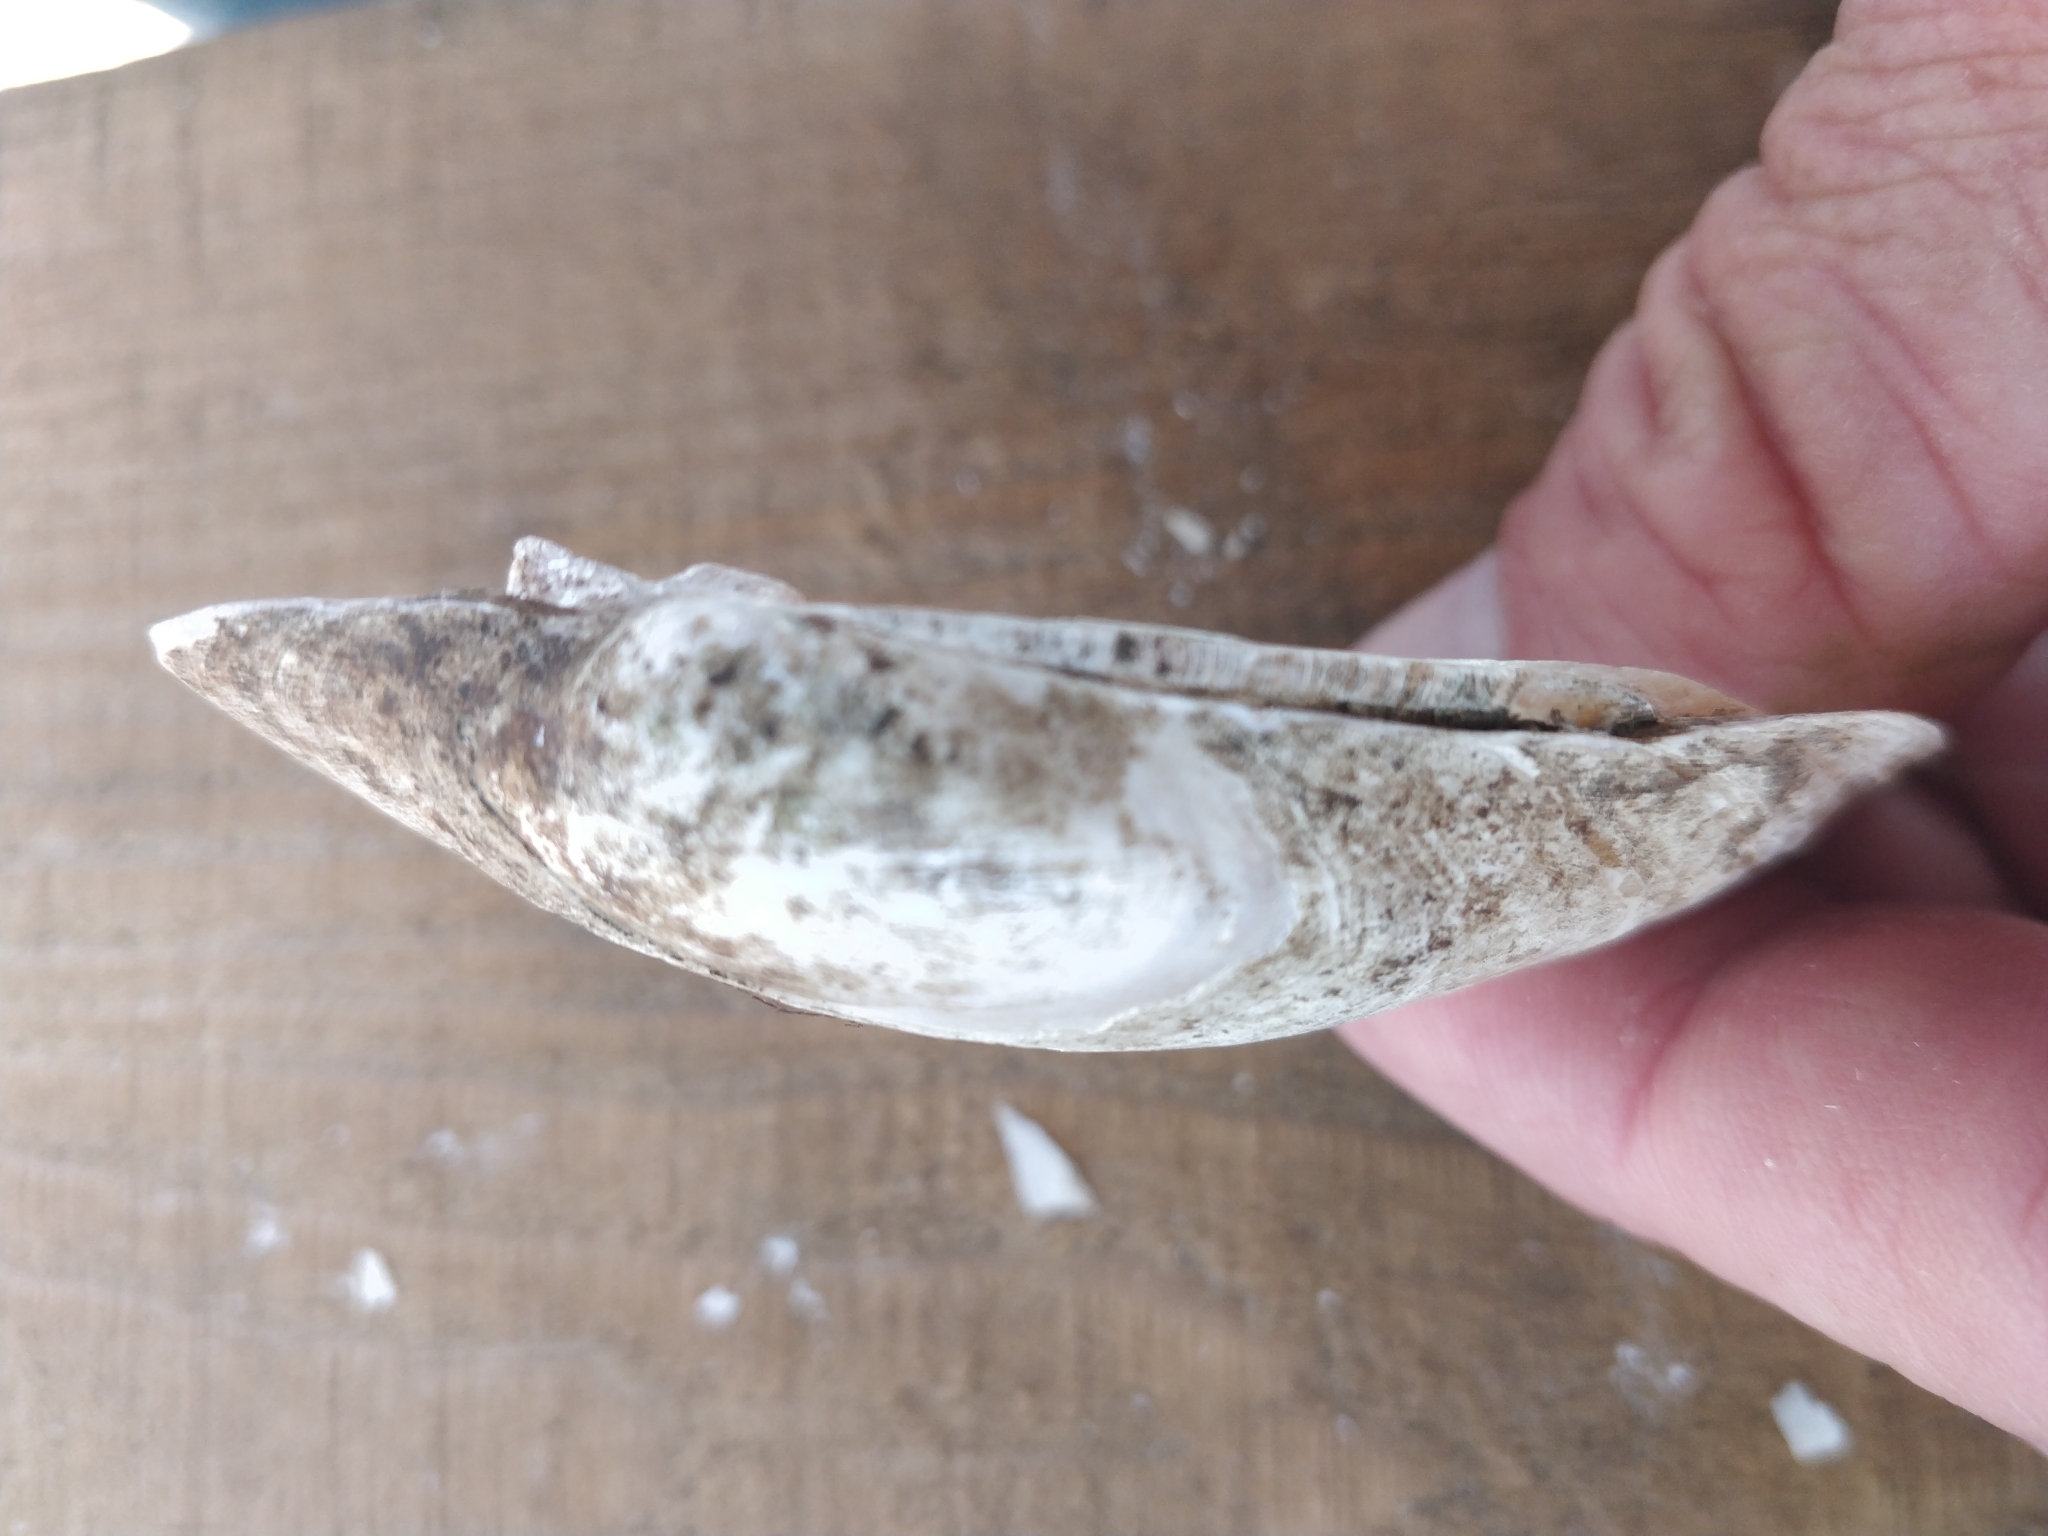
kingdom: Animalia
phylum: Mollusca
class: Bivalvia
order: Unionida
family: Unionidae
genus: Lampsilis
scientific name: Lampsilis cardium
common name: Plain pocketbook
